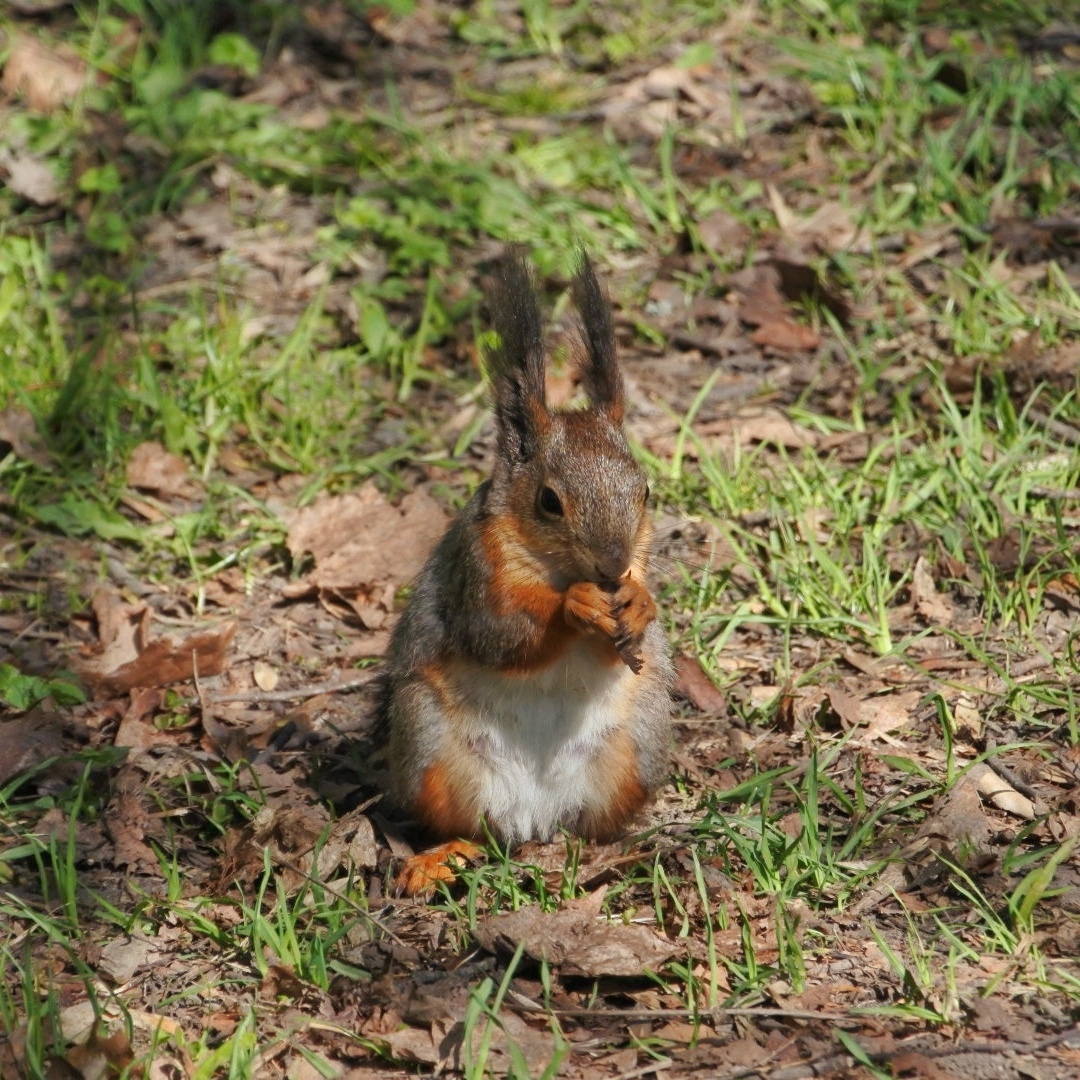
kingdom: Animalia
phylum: Chordata
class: Mammalia
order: Rodentia
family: Sciuridae
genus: Sciurus
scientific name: Sciurus vulgaris
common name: Eurasian red squirrel
